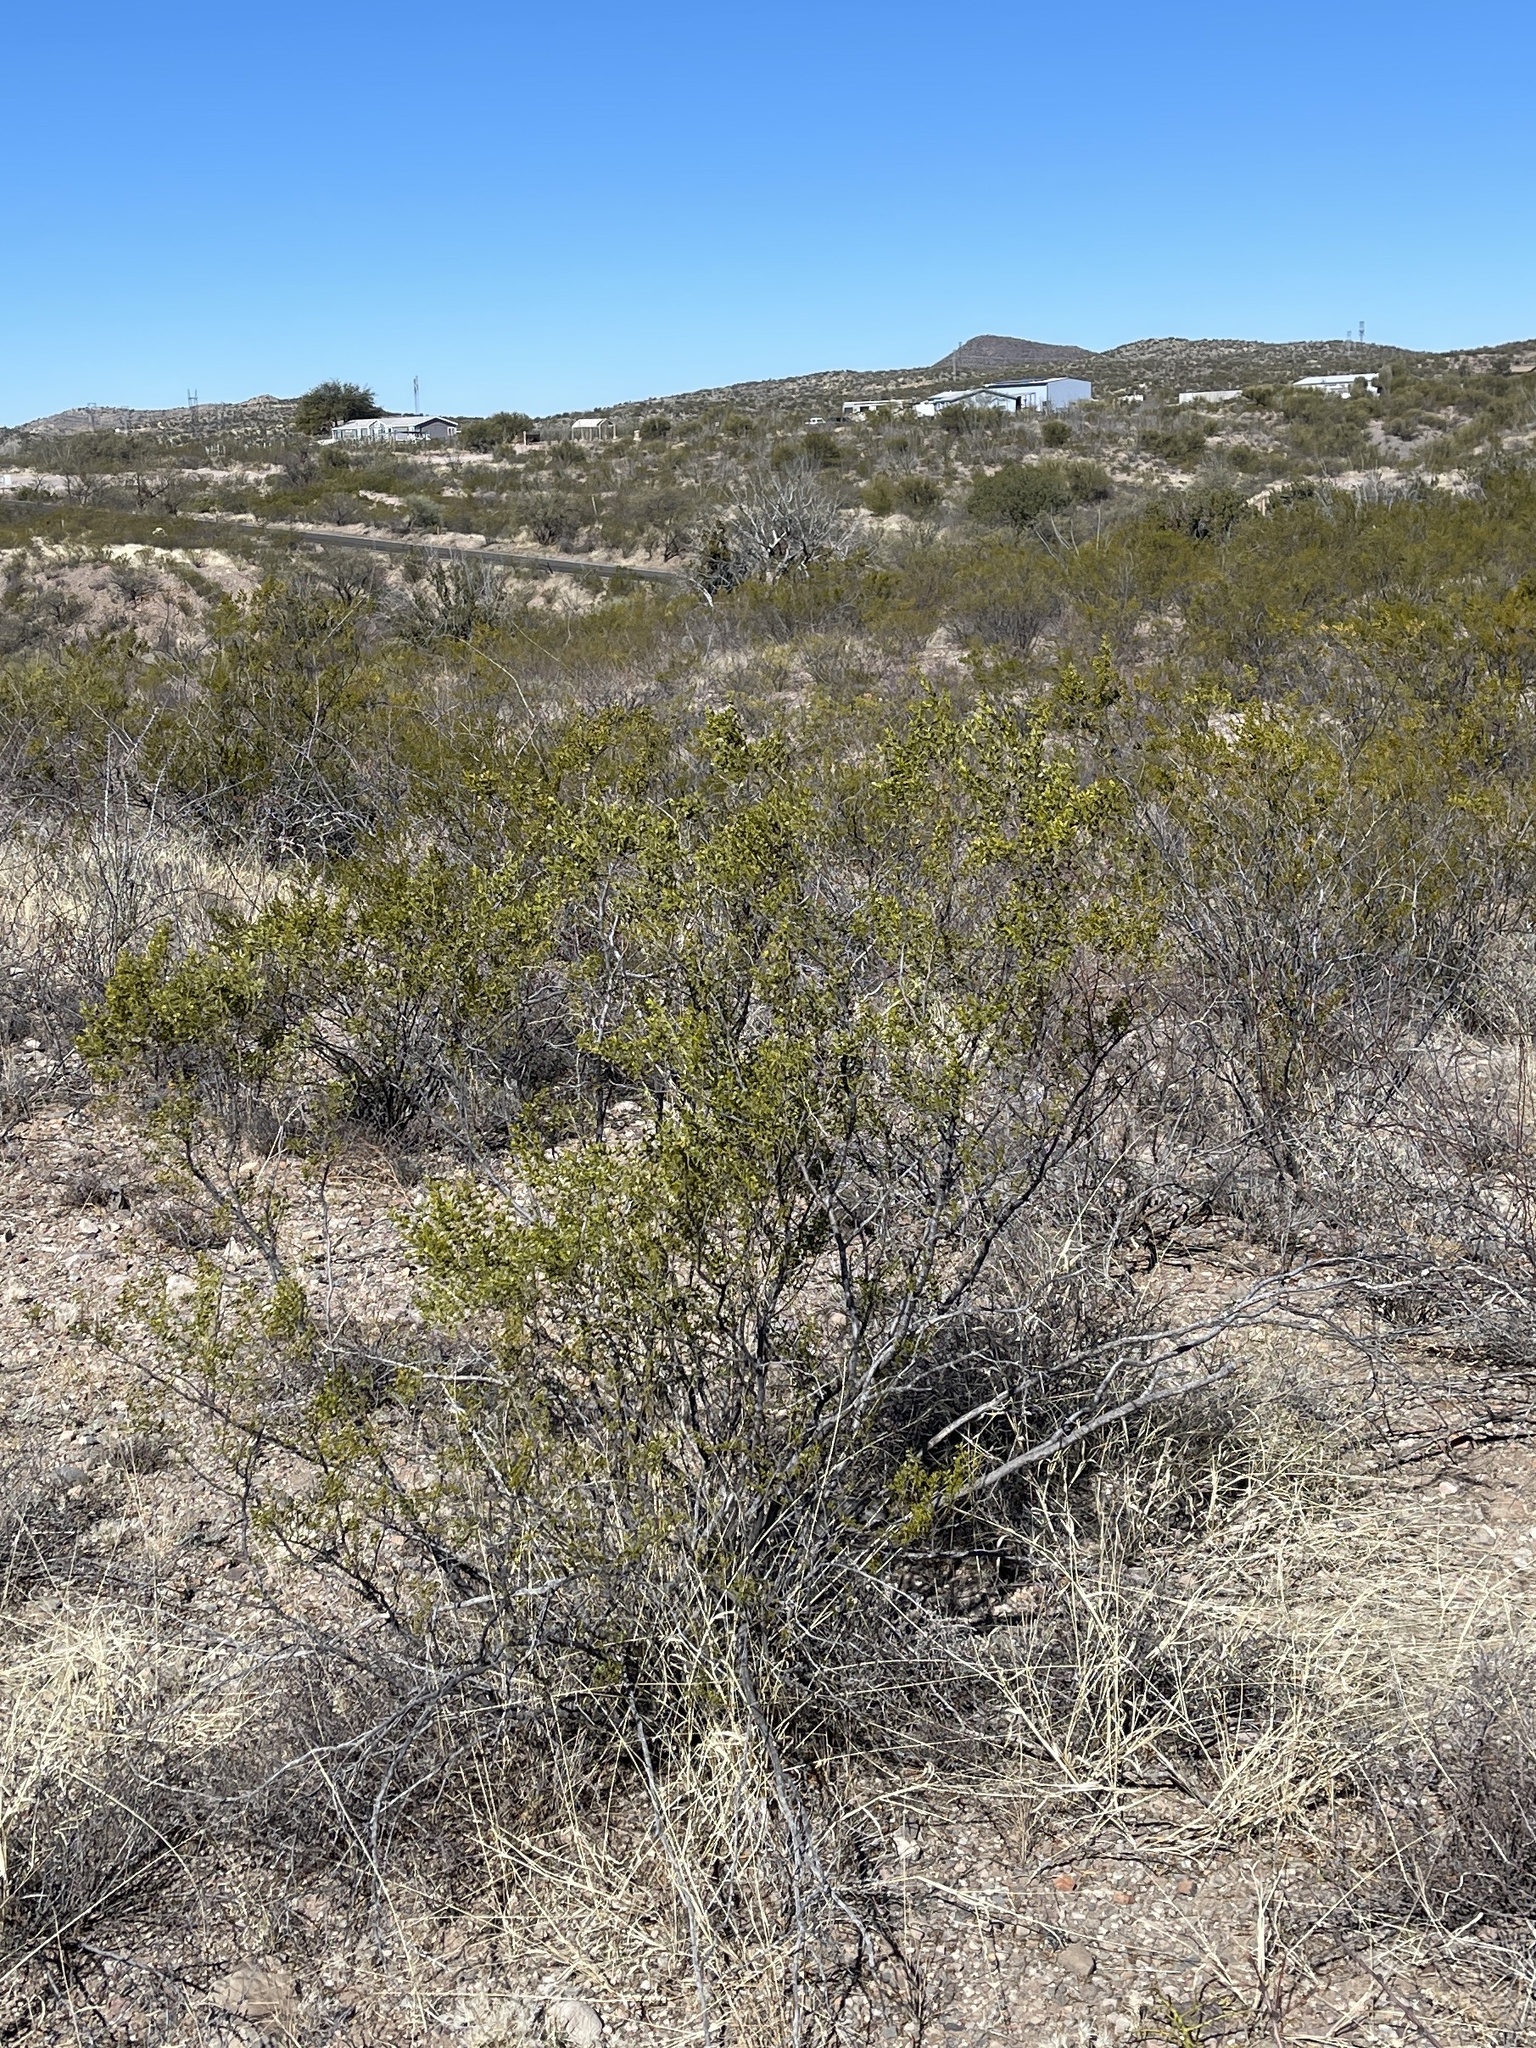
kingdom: Plantae
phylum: Tracheophyta
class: Magnoliopsida
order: Zygophyllales
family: Zygophyllaceae
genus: Larrea
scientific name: Larrea tridentata
